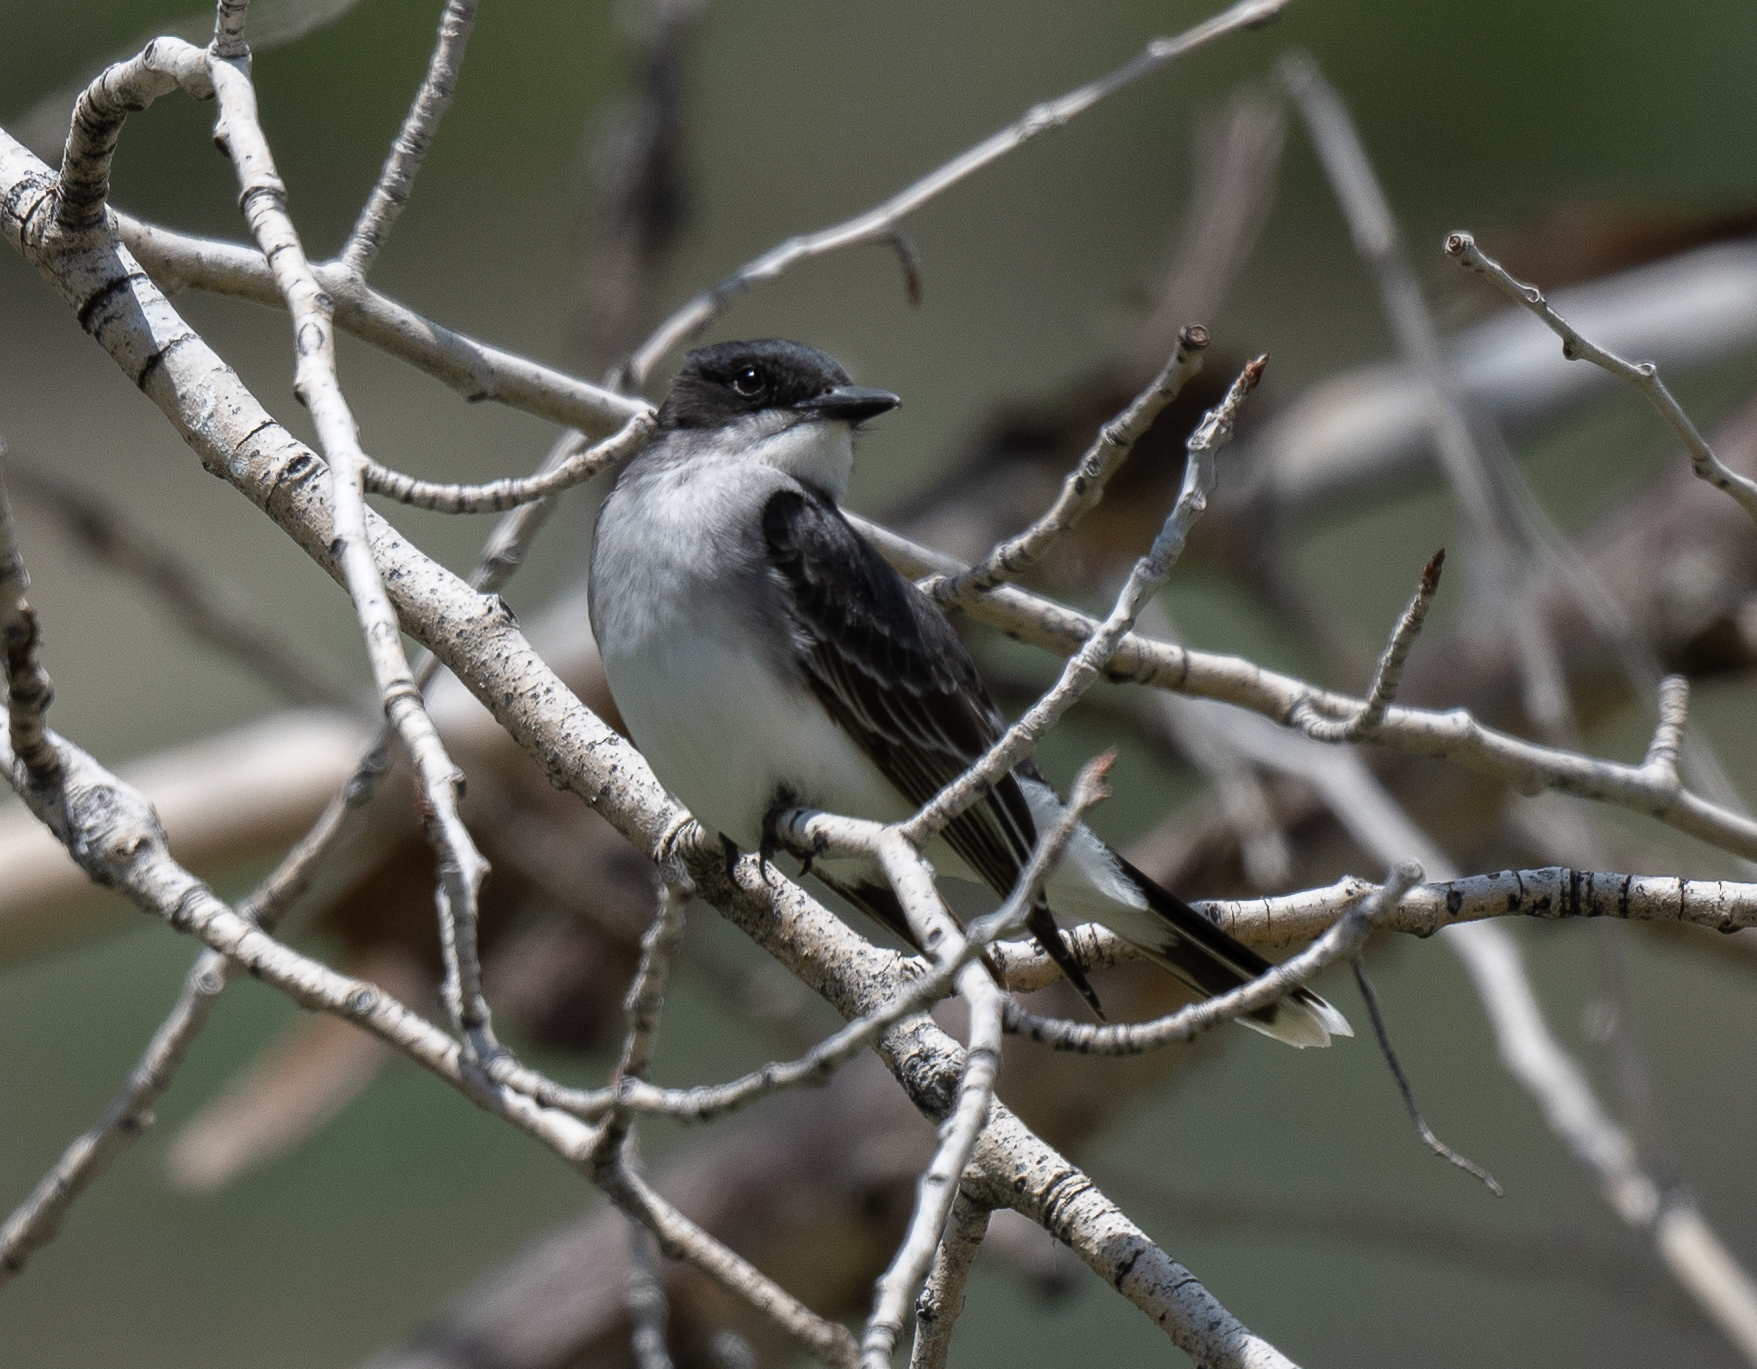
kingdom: Animalia
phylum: Chordata
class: Aves
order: Passeriformes
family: Tyrannidae
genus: Tyrannus
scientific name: Tyrannus tyrannus
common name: Eastern kingbird
